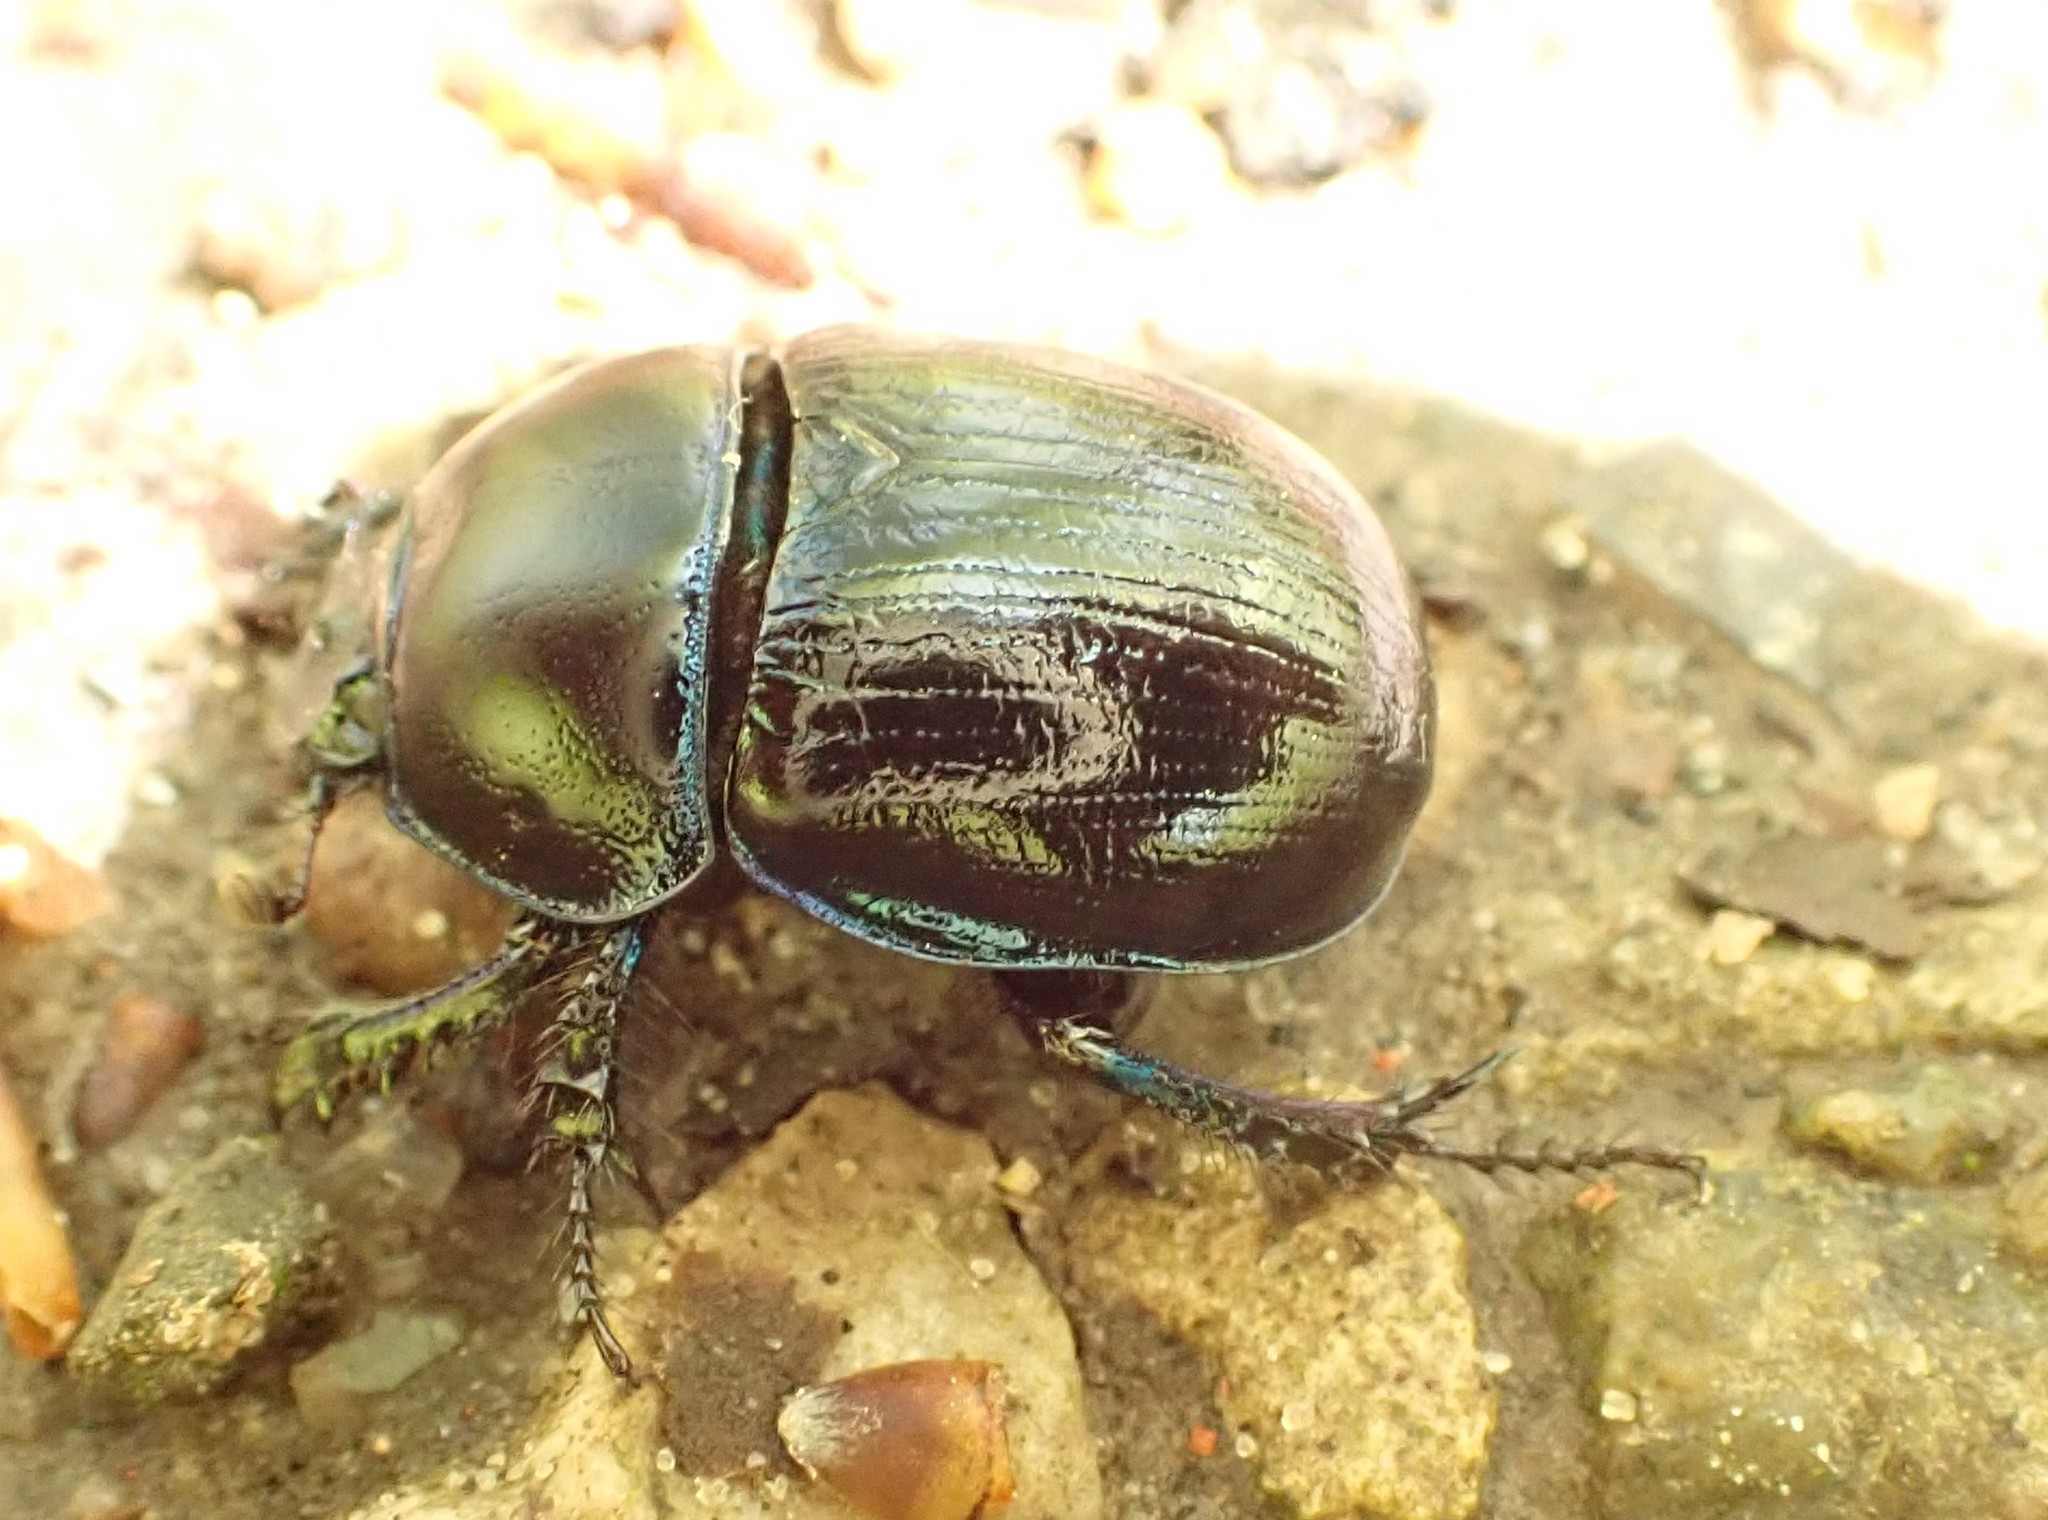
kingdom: Animalia
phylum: Arthropoda
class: Insecta
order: Coleoptera
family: Geotrupidae
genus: Anoplotrupes
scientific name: Anoplotrupes stercorosus
